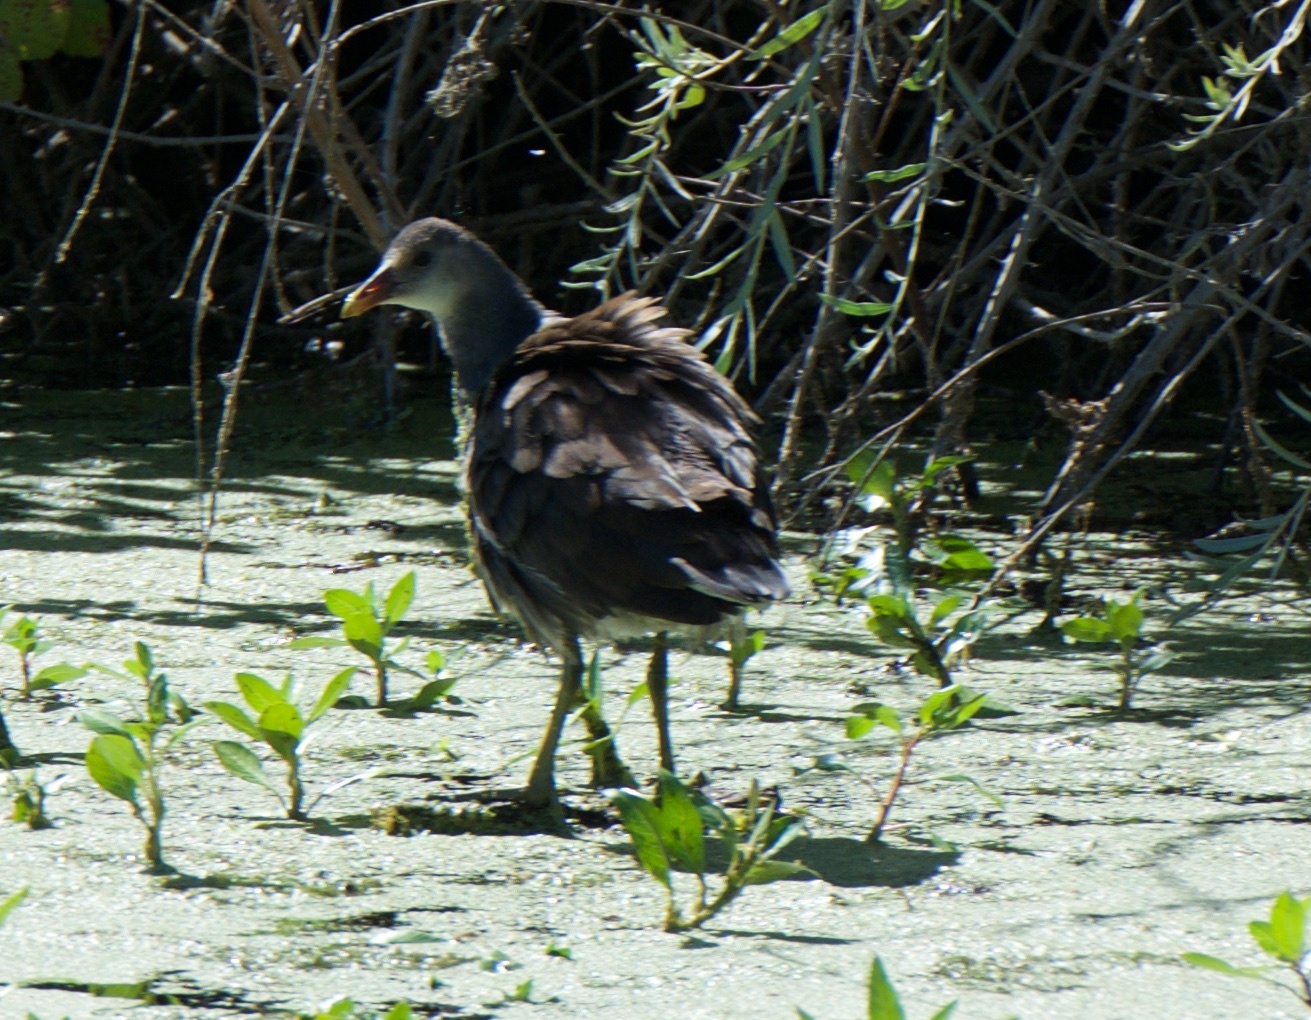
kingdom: Animalia
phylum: Chordata
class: Aves
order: Gruiformes
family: Rallidae
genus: Gallinula
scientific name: Gallinula chloropus
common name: Common moorhen
